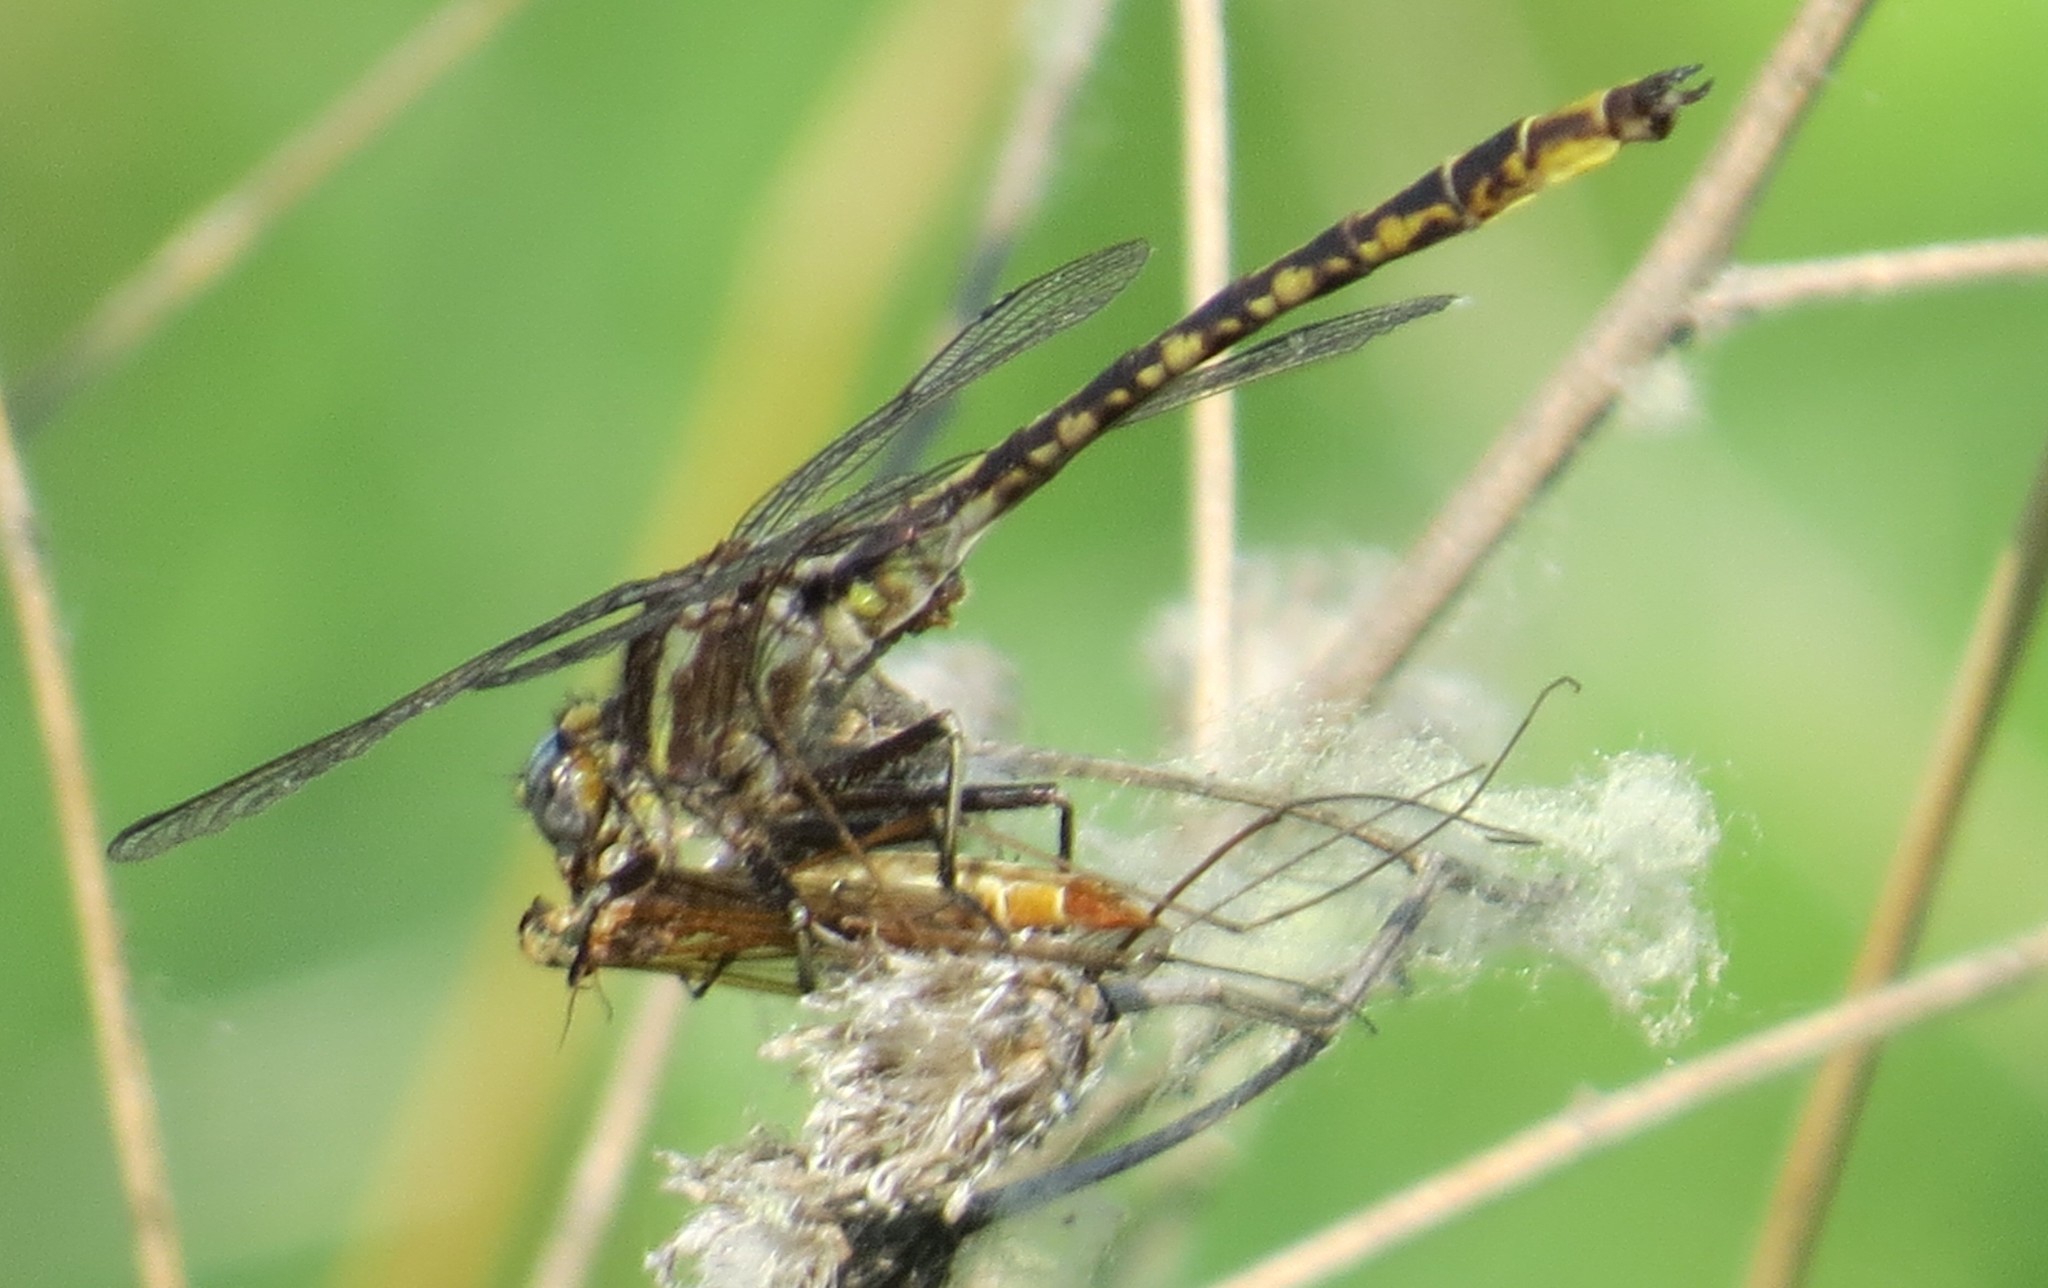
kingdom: Animalia
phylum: Arthropoda
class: Insecta
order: Odonata
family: Gomphidae
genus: Phanogomphus
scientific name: Phanogomphus spicatus
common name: Dusky clubtail
